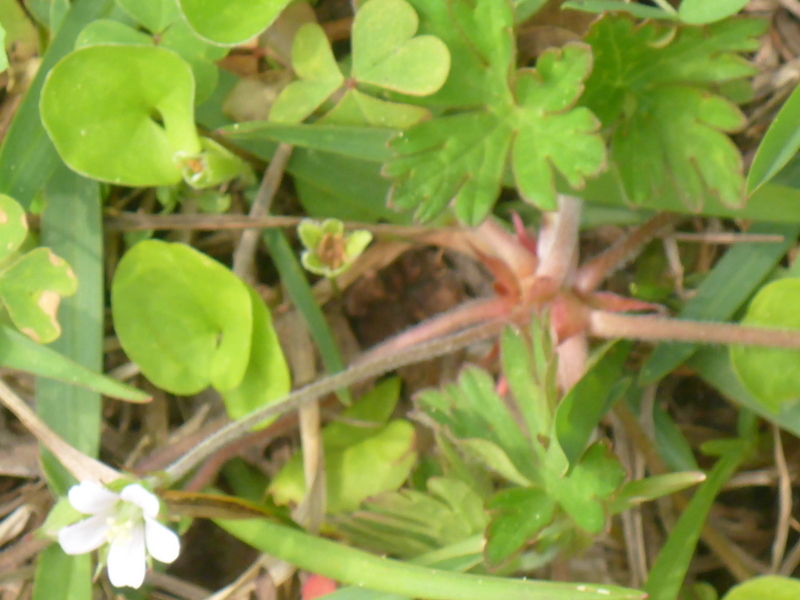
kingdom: Plantae
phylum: Tracheophyta
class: Magnoliopsida
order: Geraniales
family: Geraniaceae
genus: Geranium
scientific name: Geranium carolinianum
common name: Carolina crane's-bill
